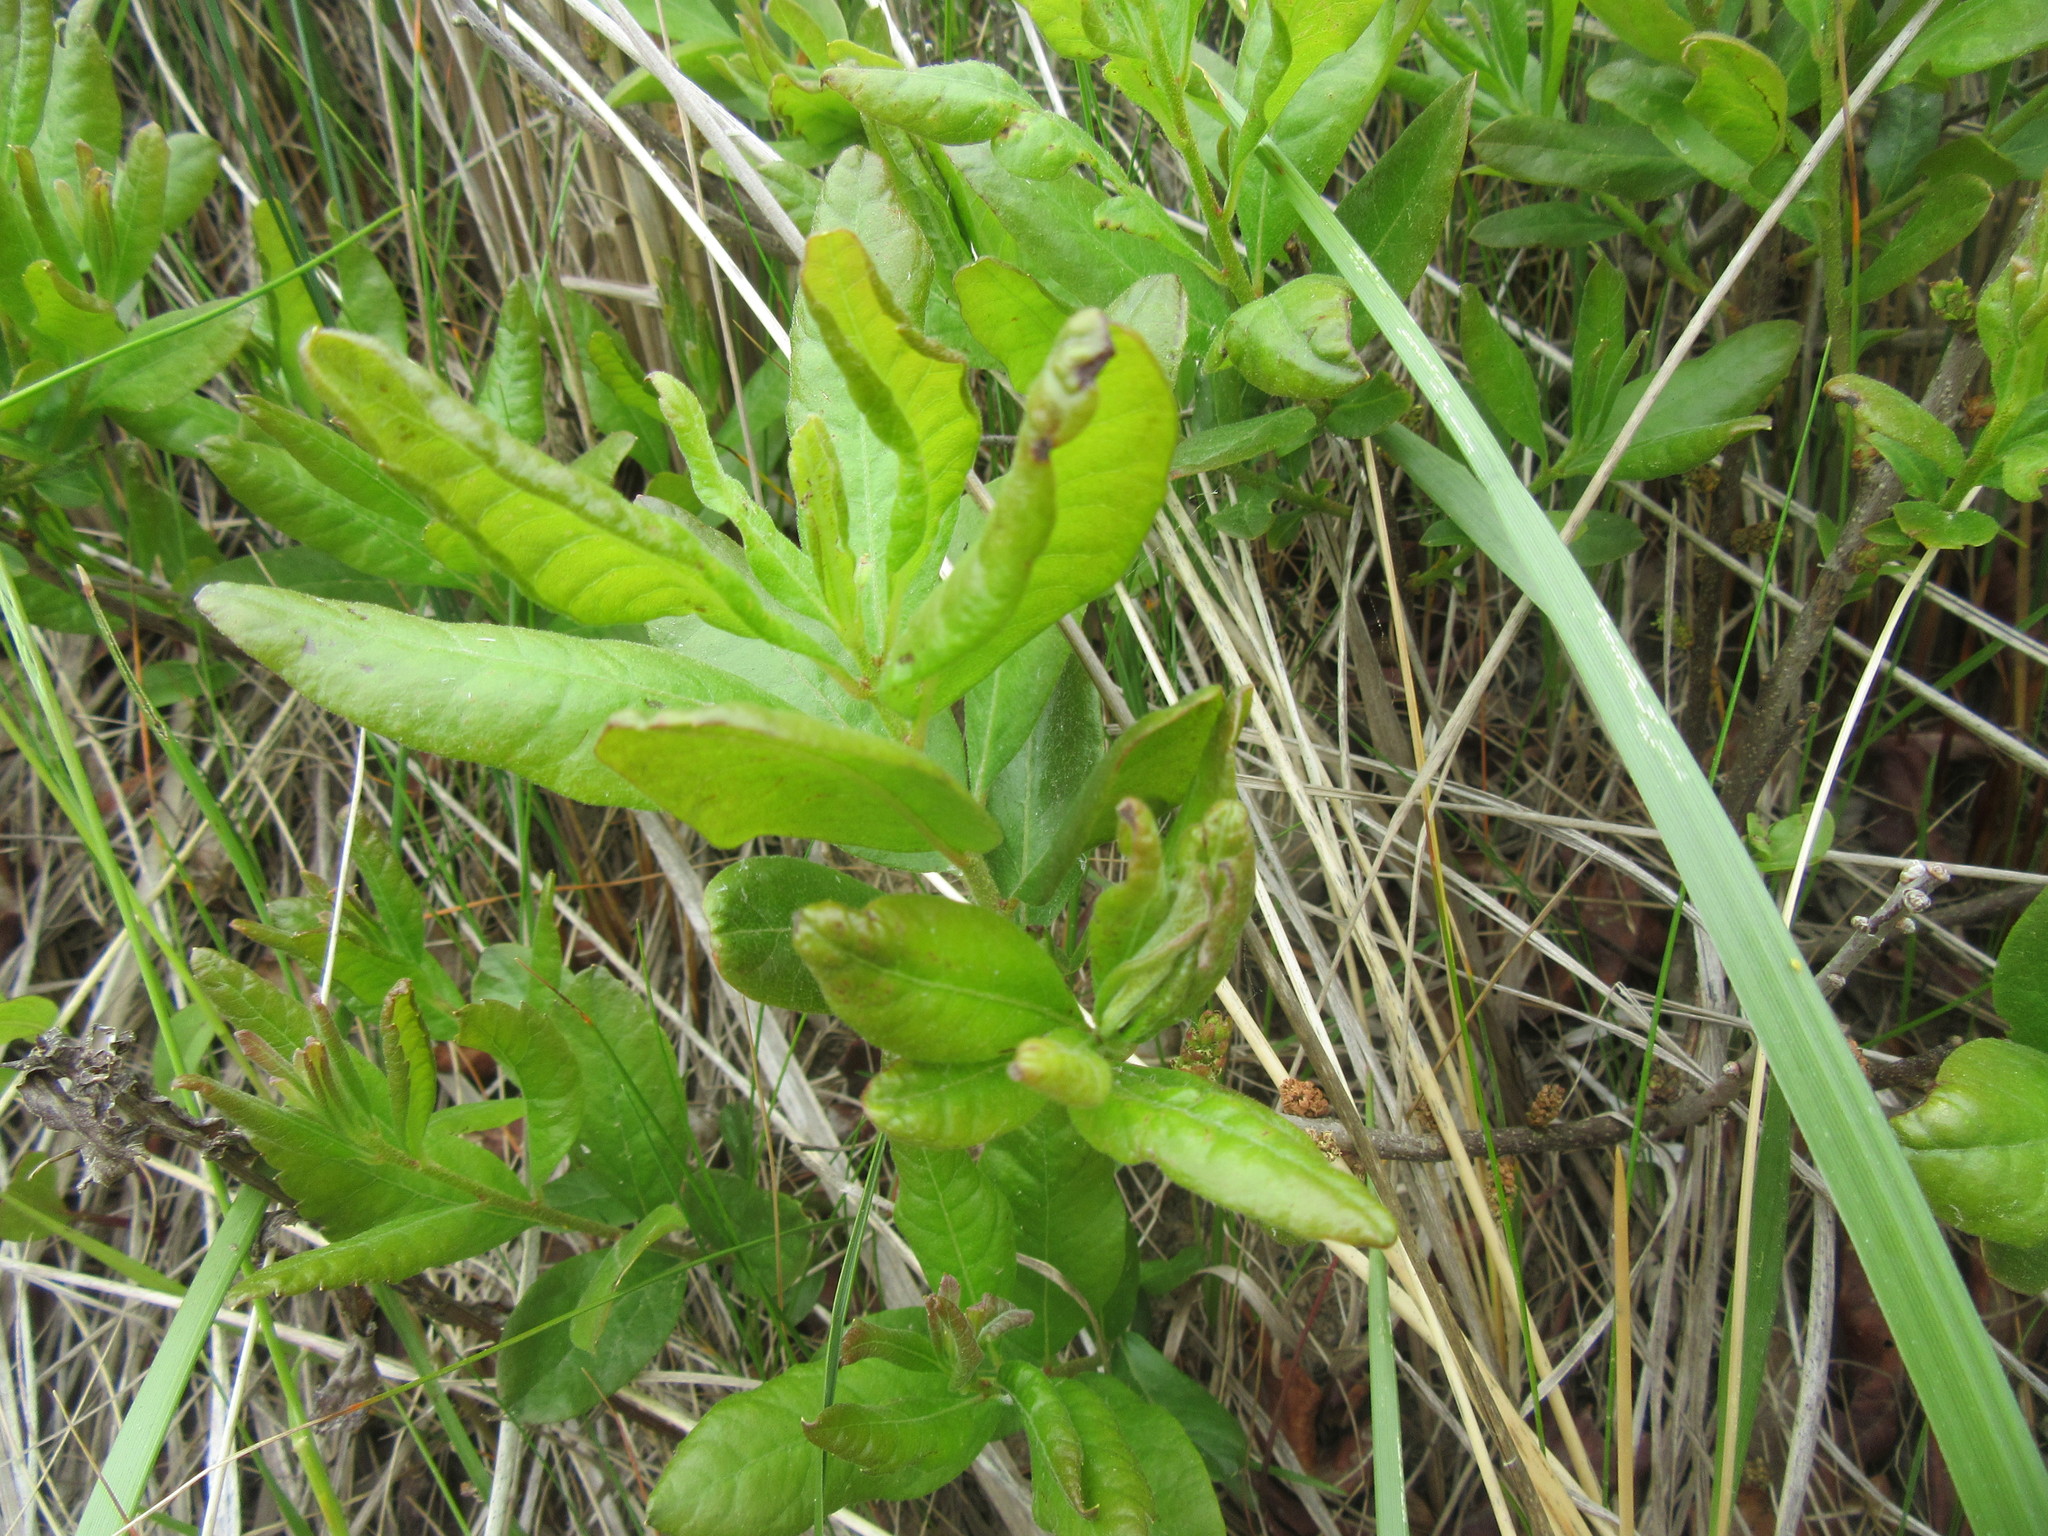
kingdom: Plantae
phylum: Tracheophyta
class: Magnoliopsida
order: Fagales
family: Myricaceae
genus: Morella
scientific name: Morella pensylvanica
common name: Northern bayberry
